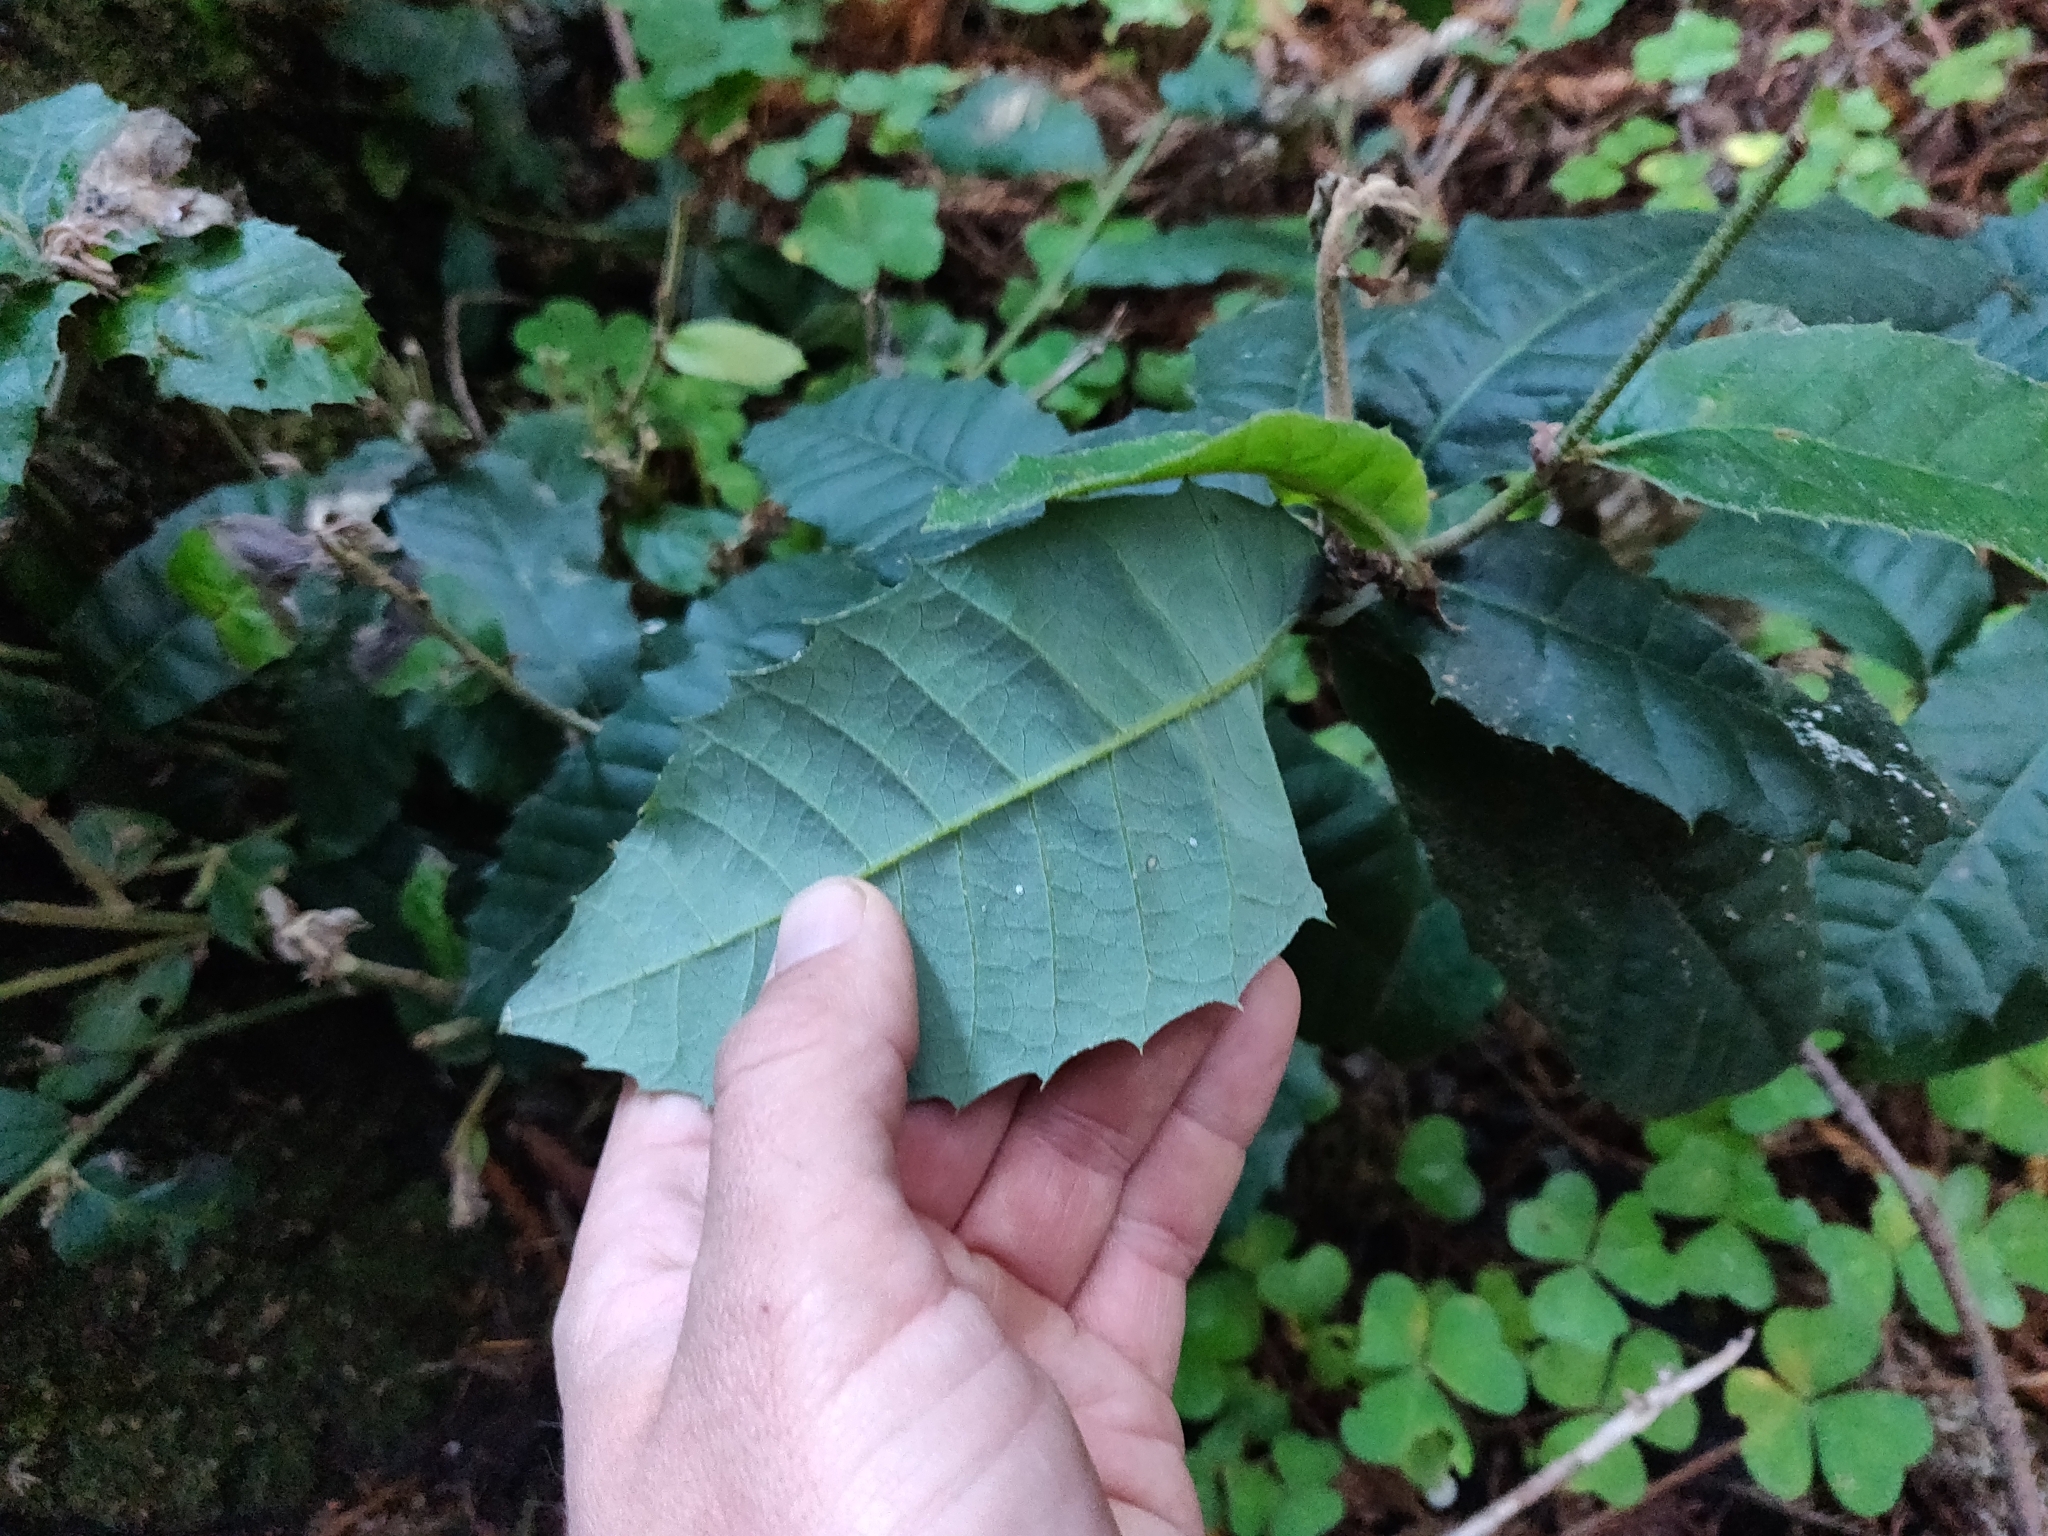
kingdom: Plantae
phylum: Tracheophyta
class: Magnoliopsida
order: Fagales
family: Fagaceae
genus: Notholithocarpus
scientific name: Notholithocarpus densiflorus
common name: Tan bark oak
